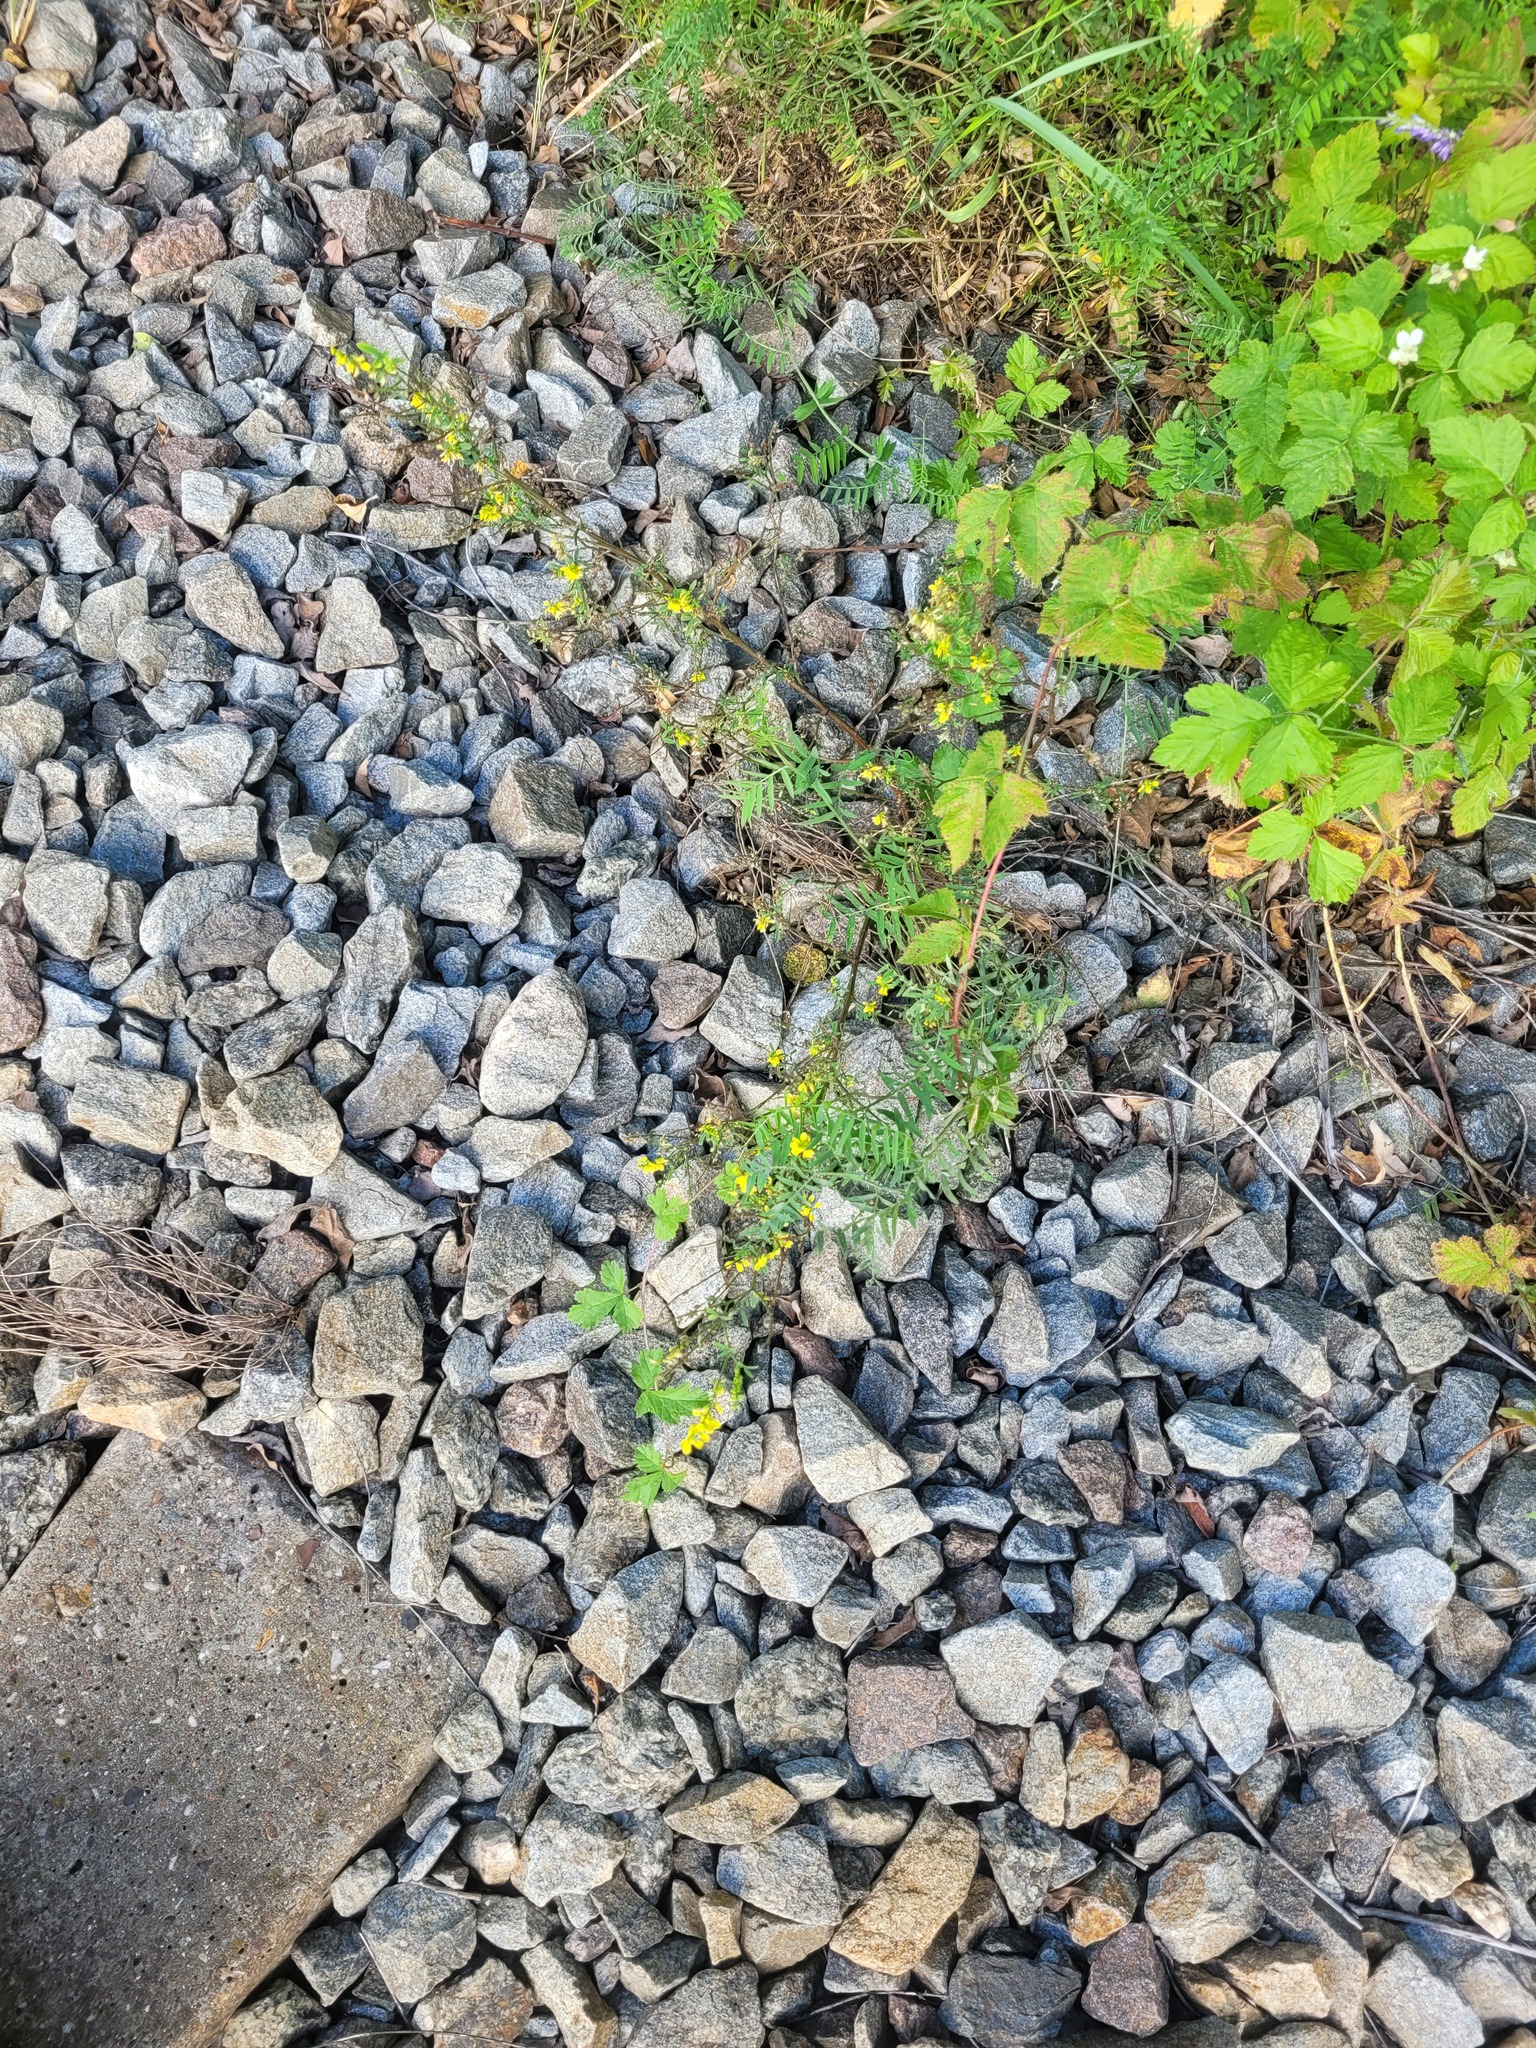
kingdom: Plantae
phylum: Tracheophyta
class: Magnoliopsida
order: Fabales
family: Fabaceae
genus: Melilotus
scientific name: Melilotus officinalis
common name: Sweetclover
